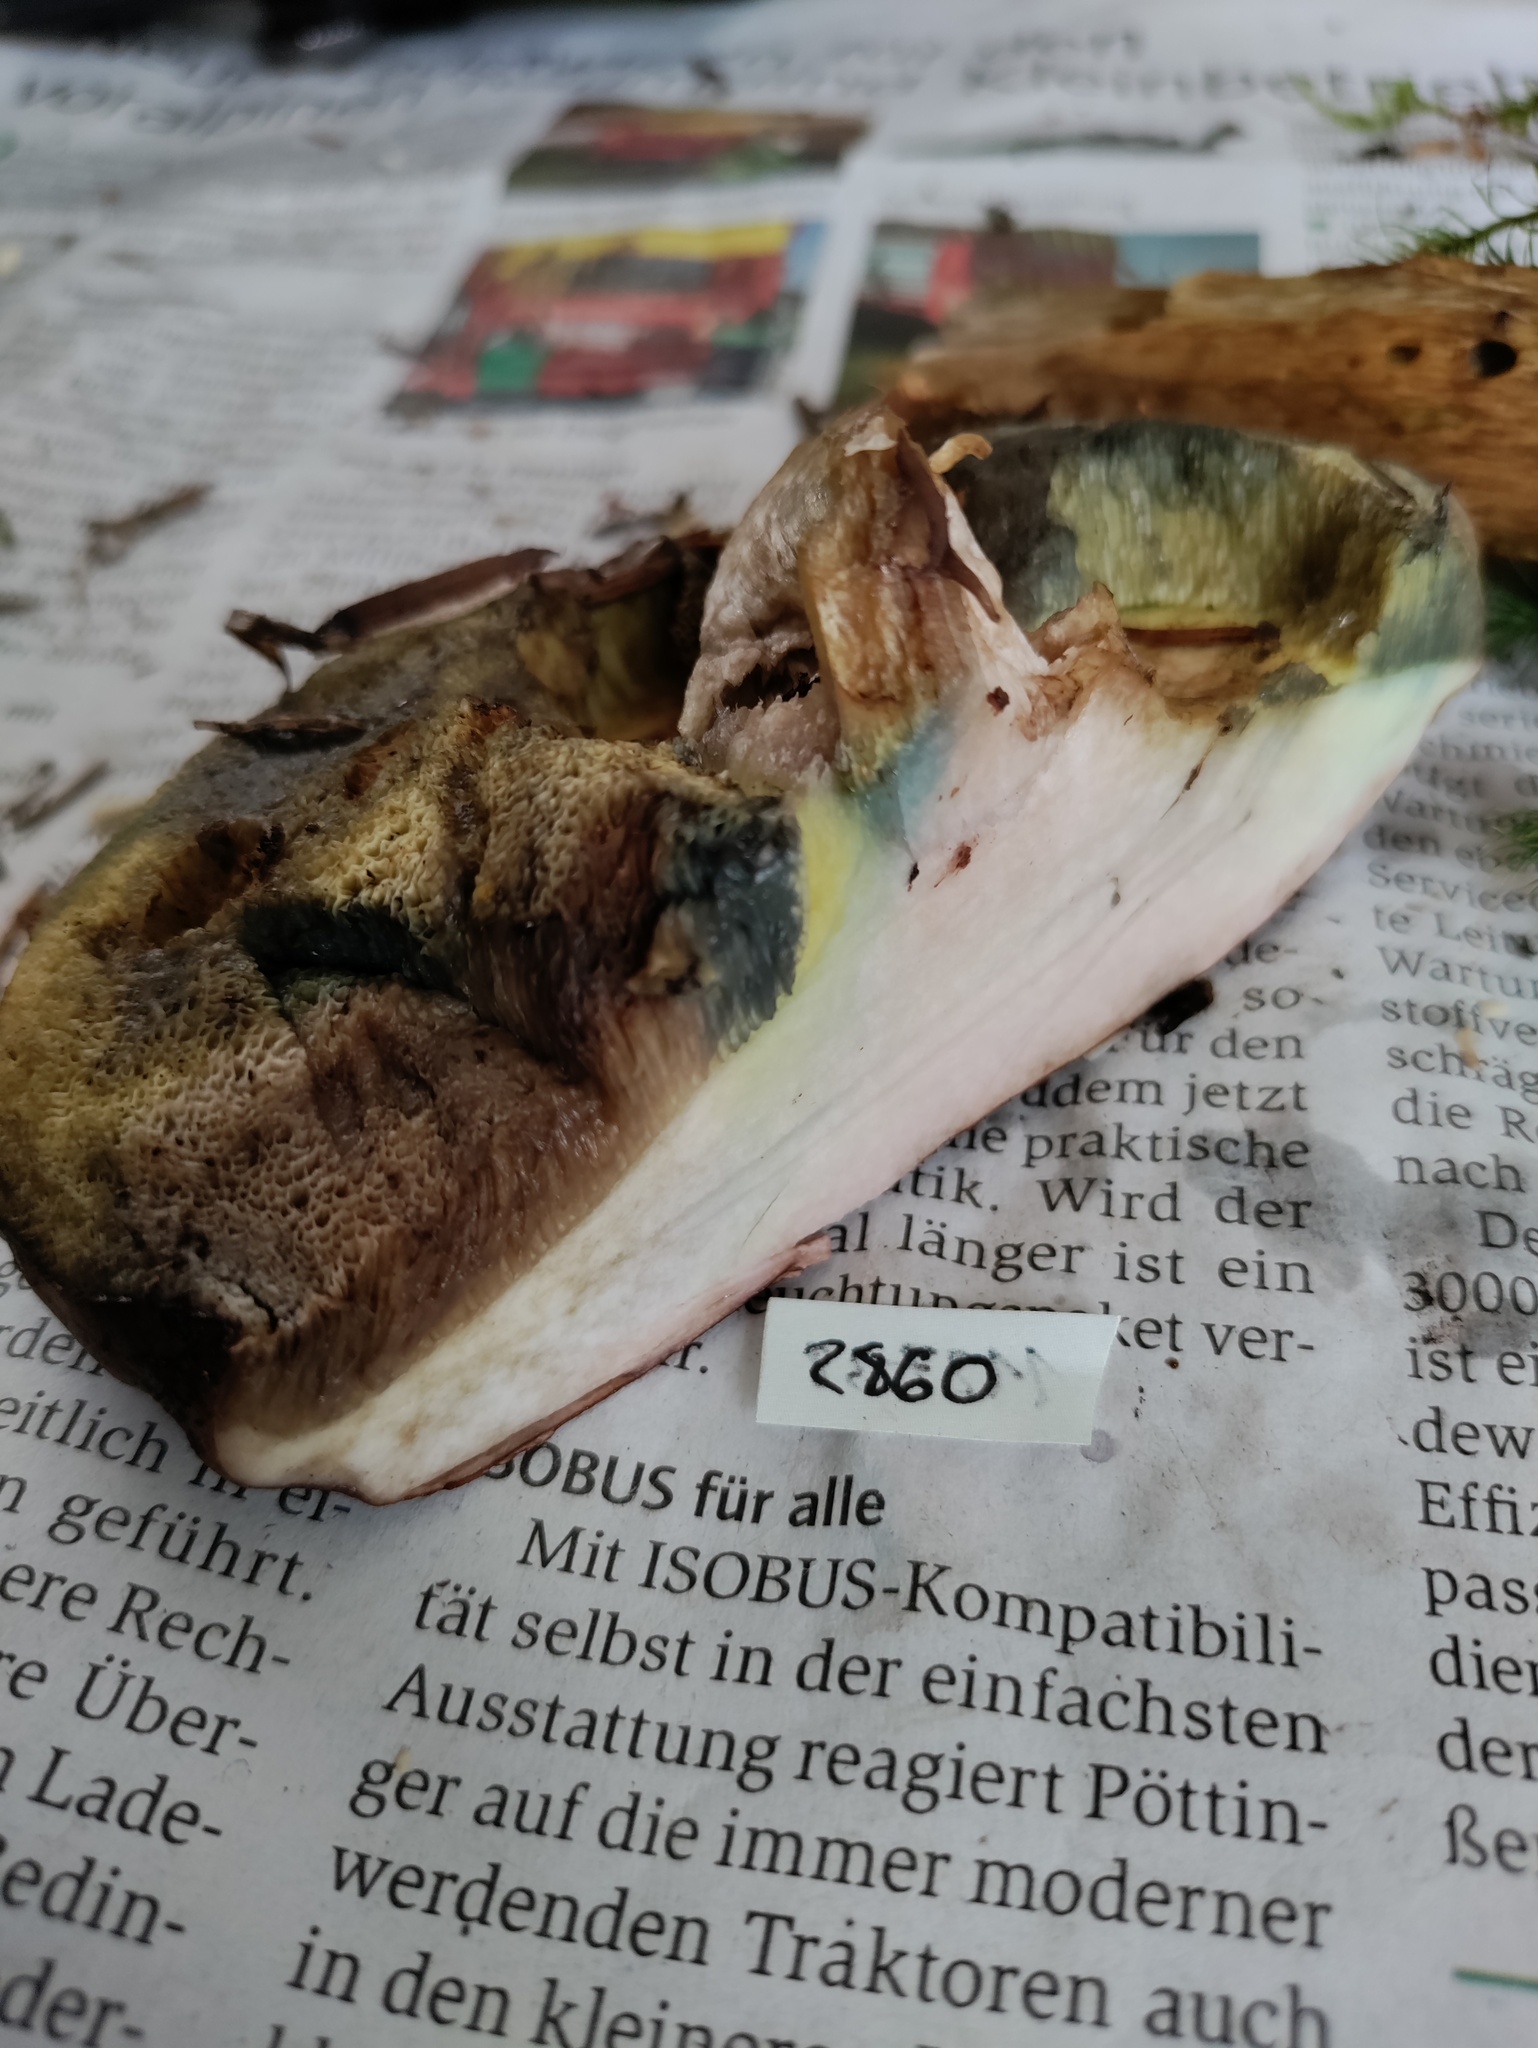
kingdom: Fungi
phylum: Basidiomycota
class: Agaricomycetes
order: Boletales
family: Boletaceae
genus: Imleria
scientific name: Imleria badia
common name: Bay bolete
